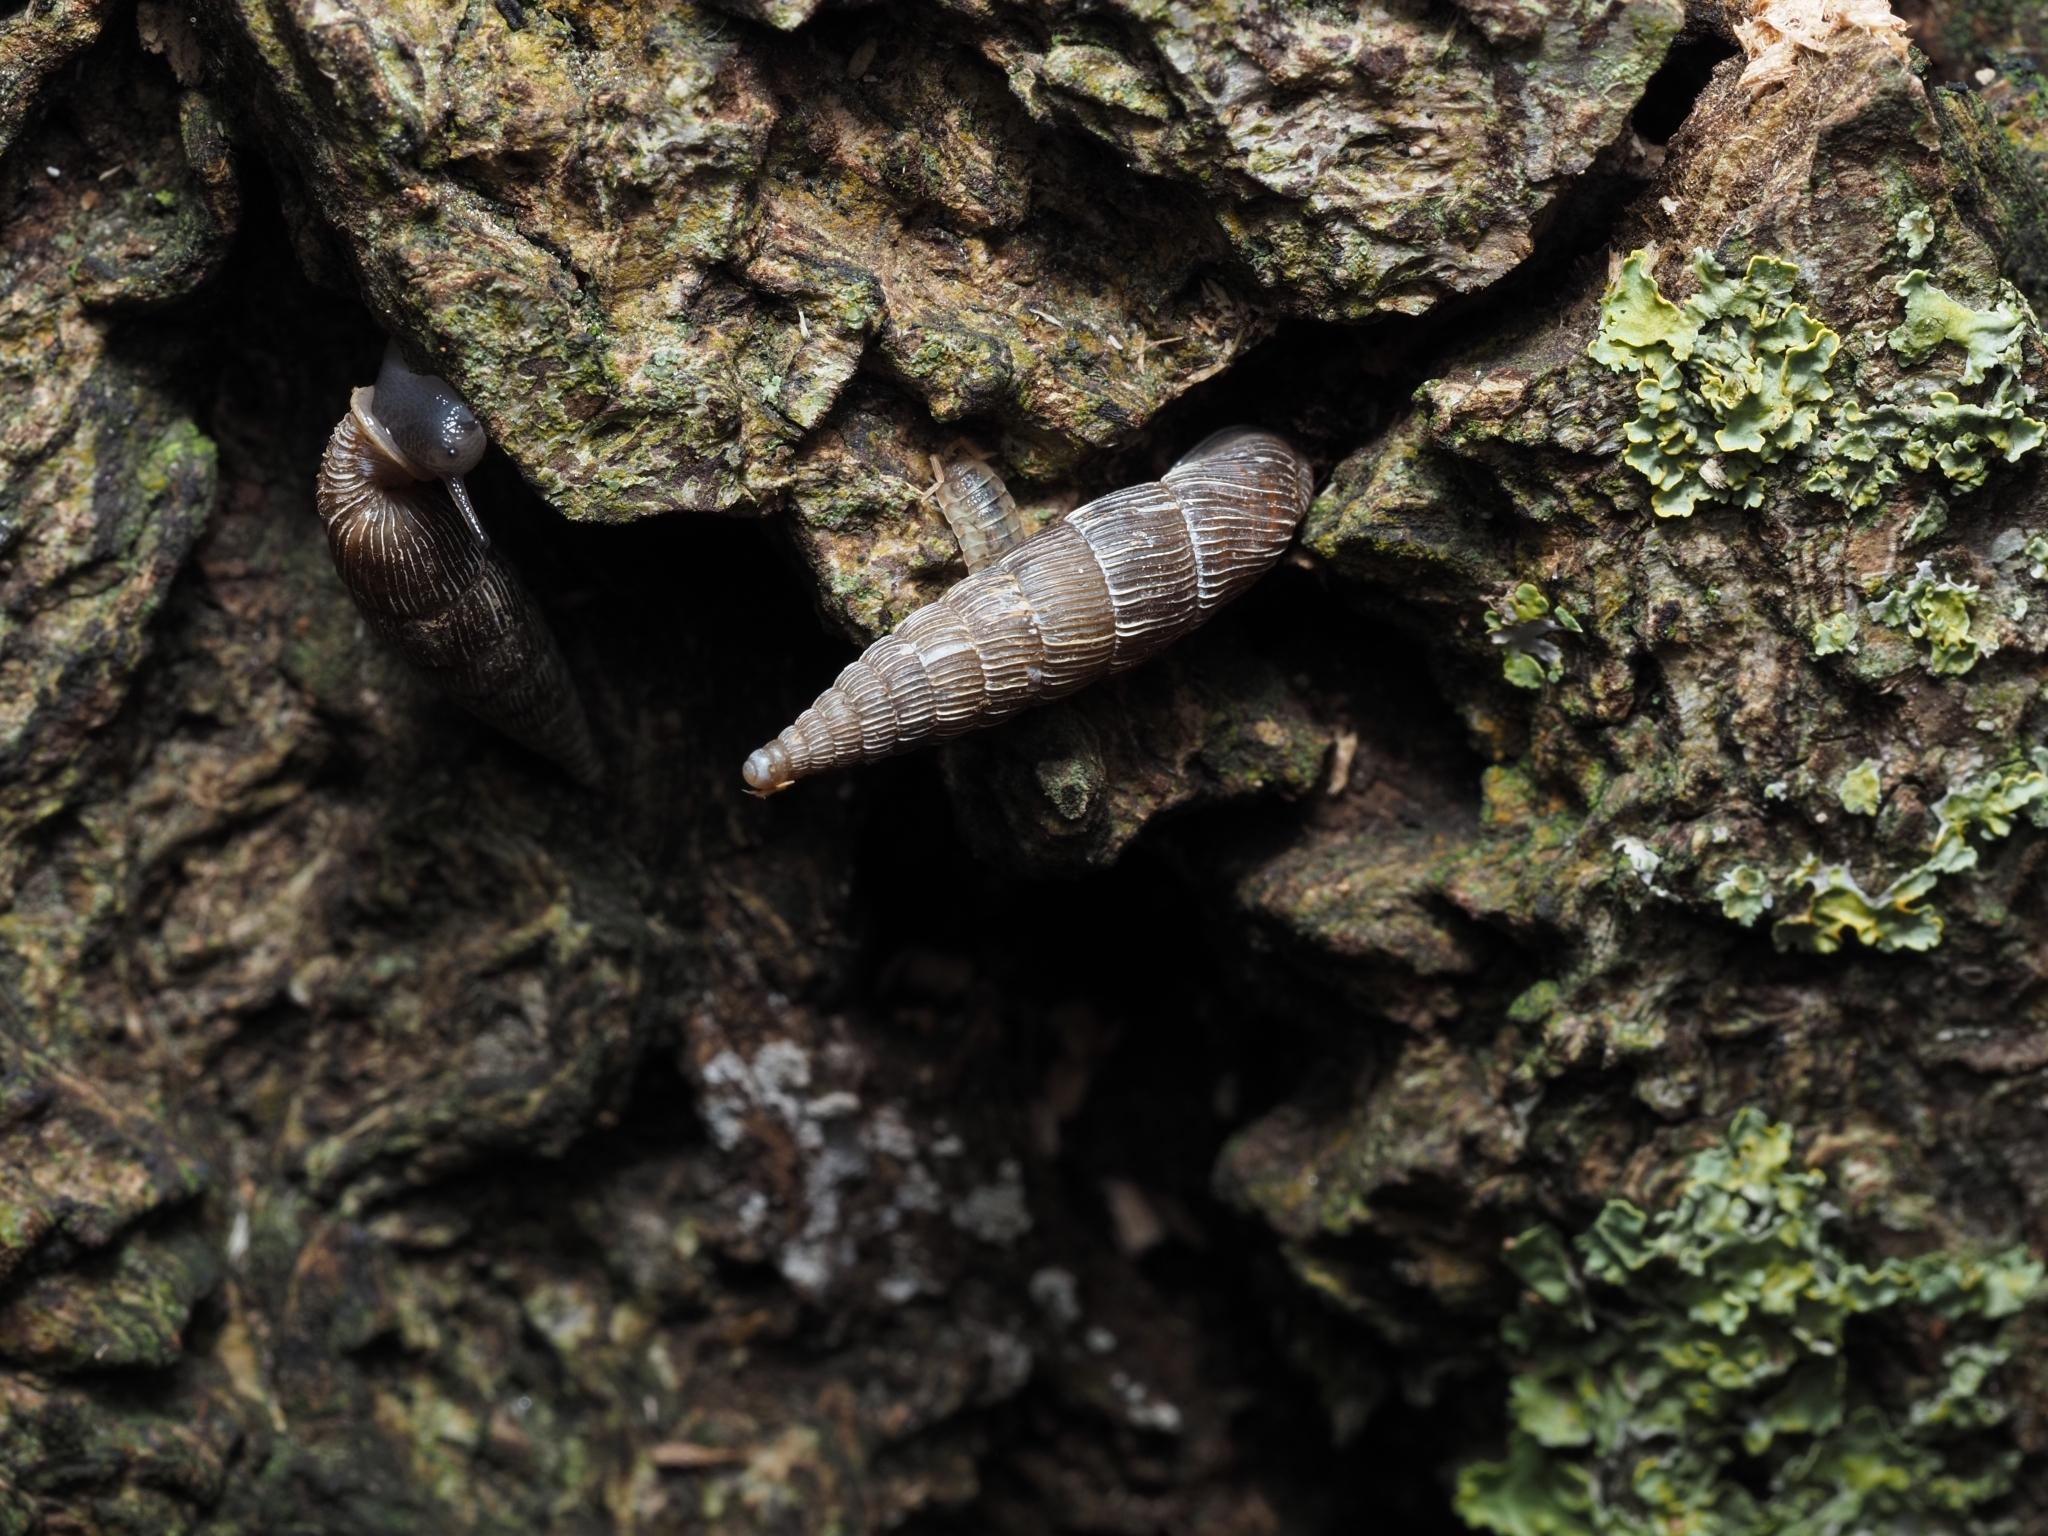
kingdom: Animalia
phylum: Mollusca
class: Gastropoda
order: Stylommatophora
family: Clausiliidae
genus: Alinda
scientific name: Alinda biplicata
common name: Thames door snail
